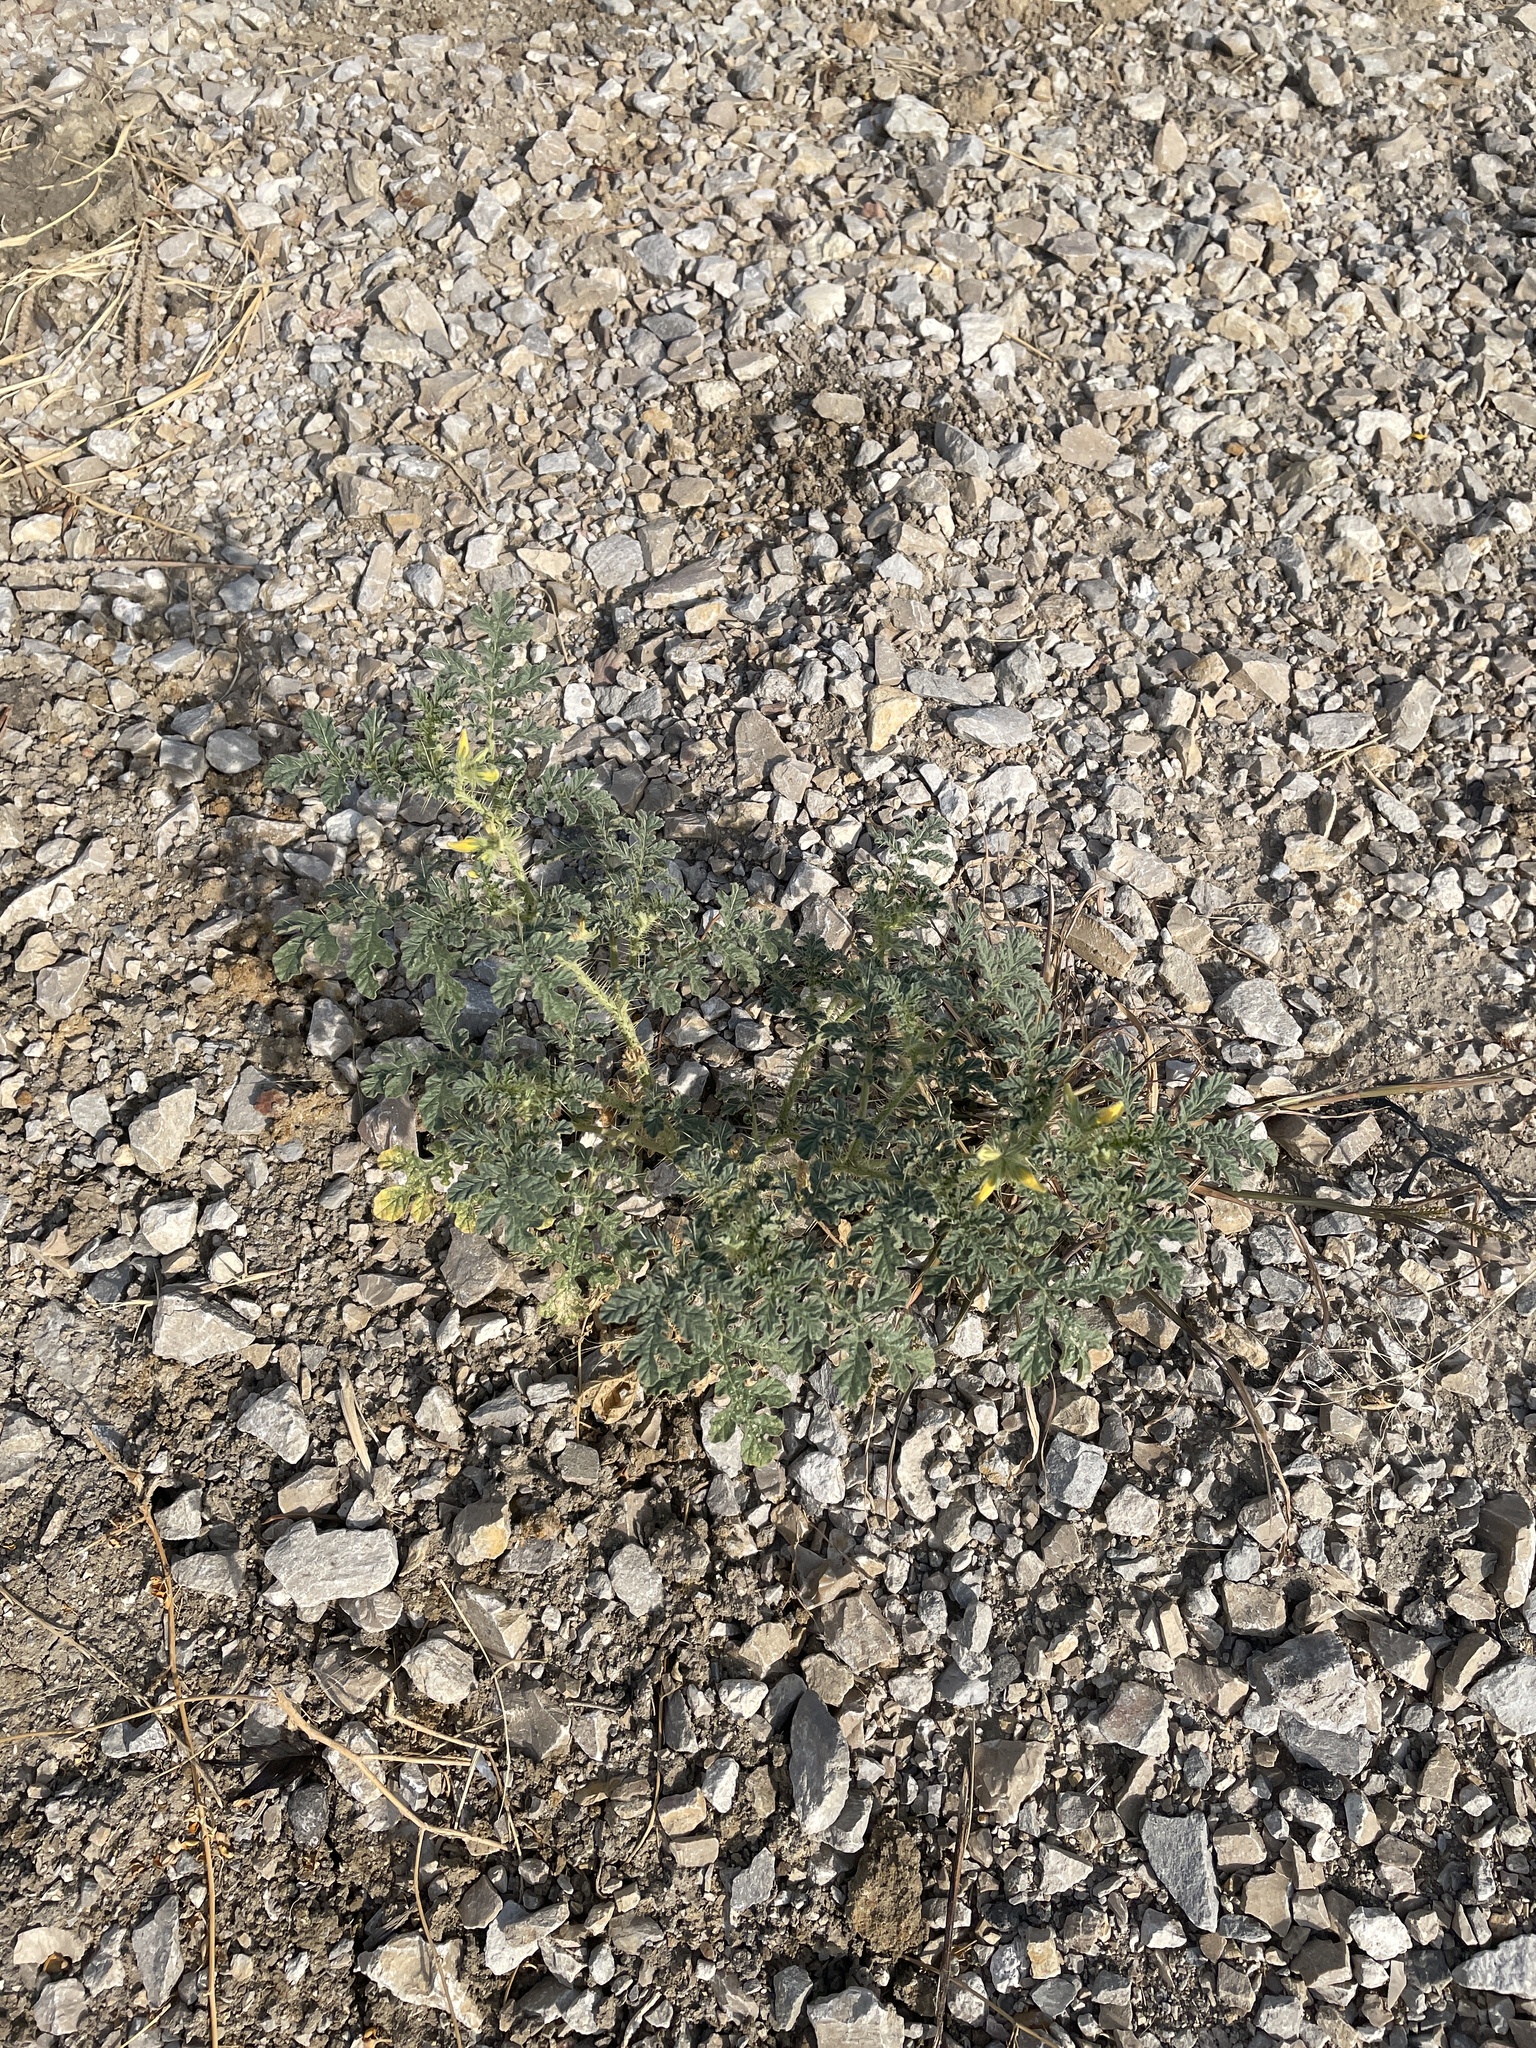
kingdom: Plantae
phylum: Tracheophyta
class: Magnoliopsida
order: Solanales
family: Solanaceae
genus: Solanum
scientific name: Solanum angustifolium
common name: Buffalobur nightshade
